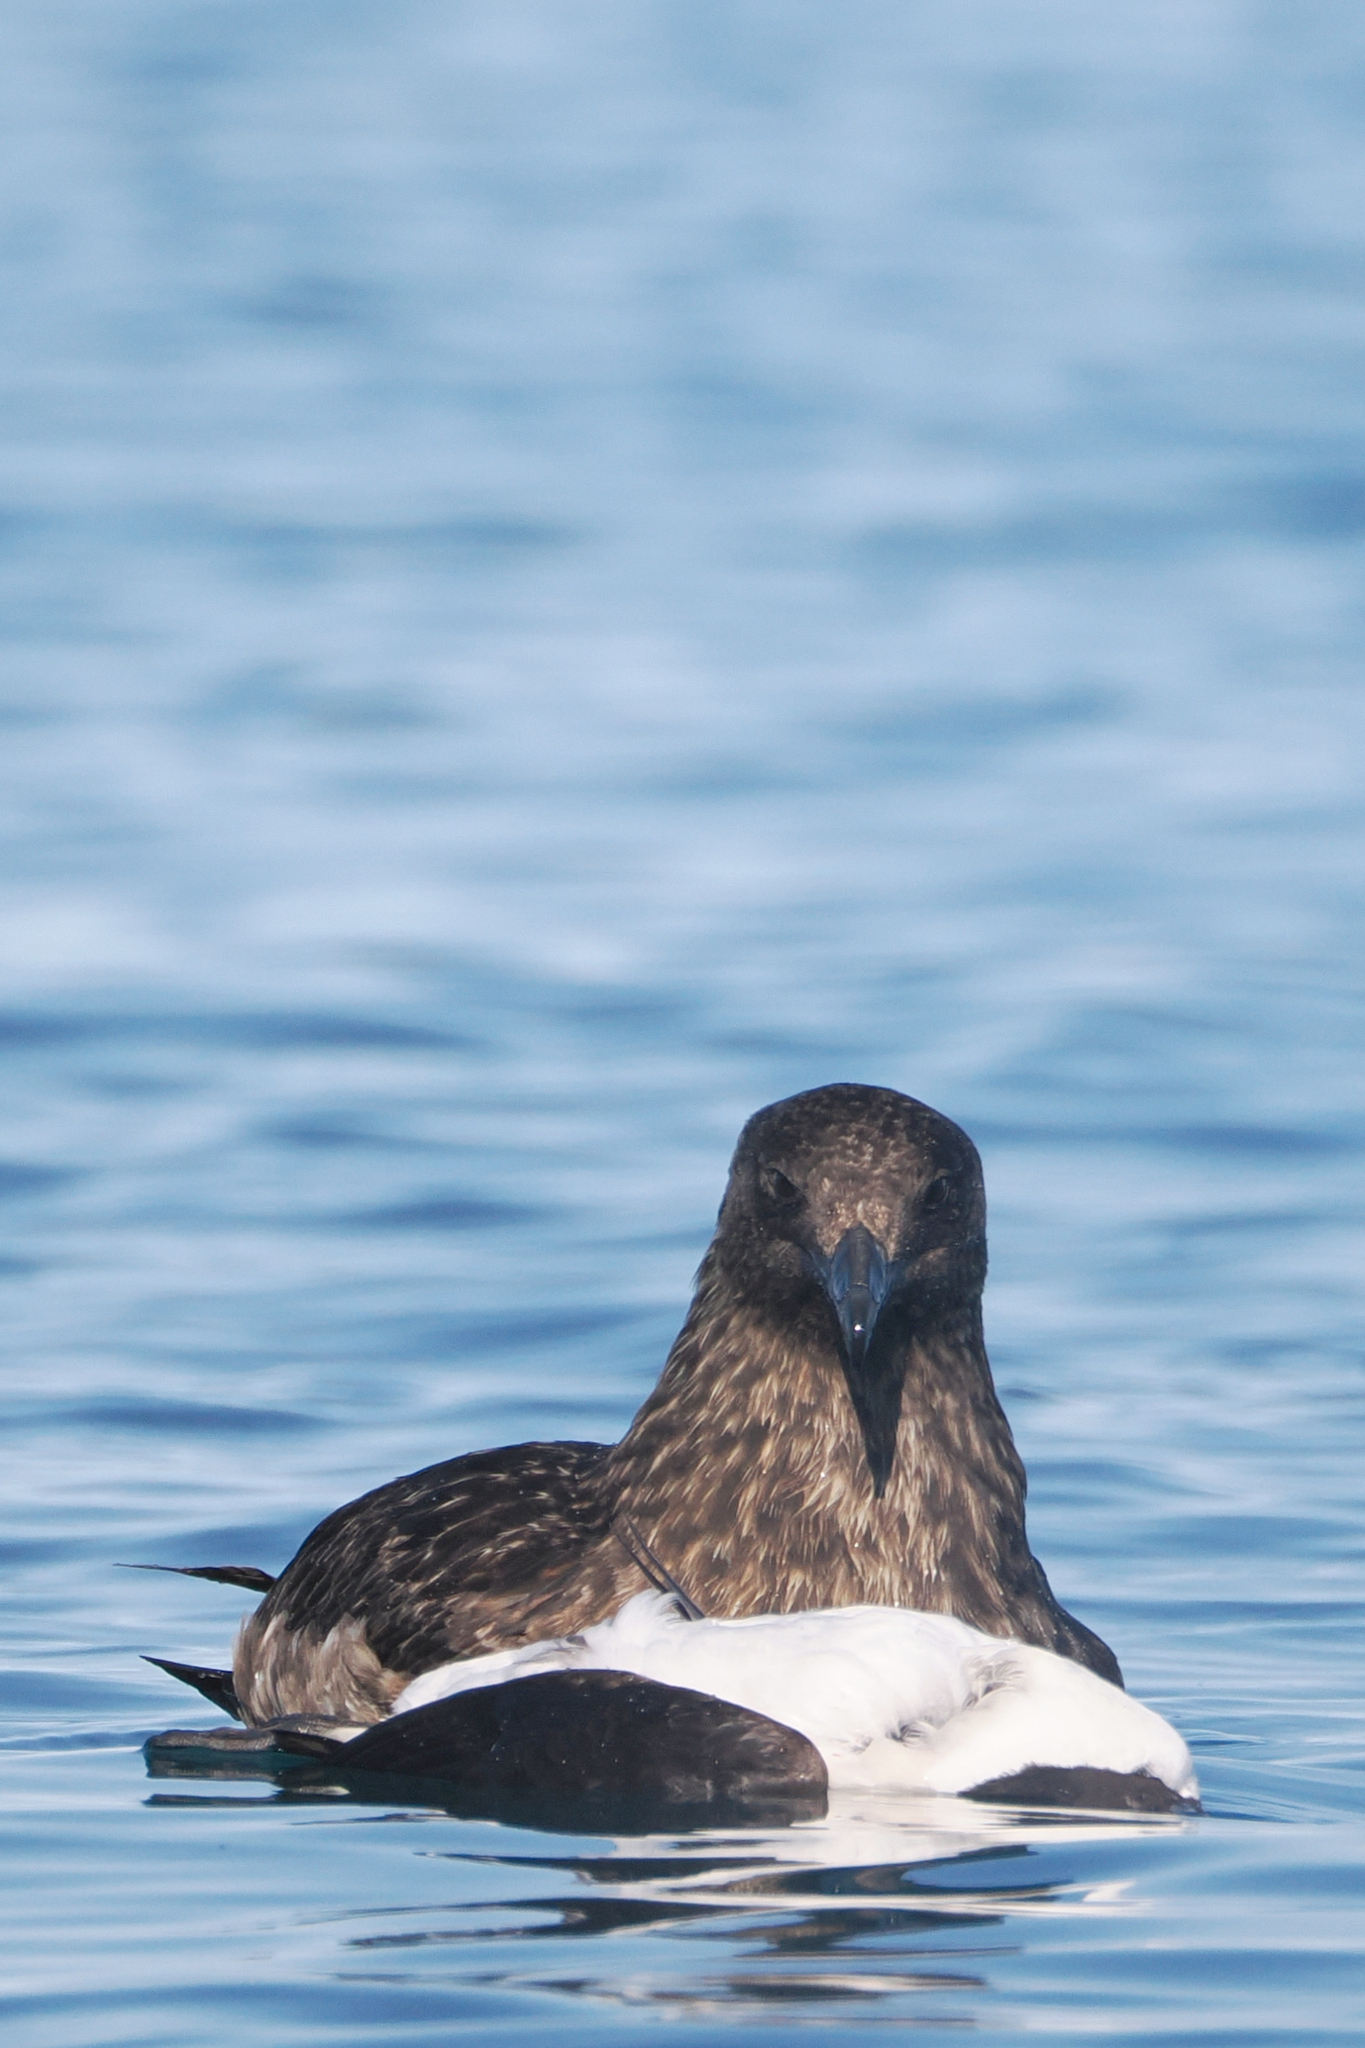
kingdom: Animalia
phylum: Chordata
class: Aves
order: Charadriiformes
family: Stercorariidae
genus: Stercorarius
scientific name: Stercorarius skua
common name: Great skua
